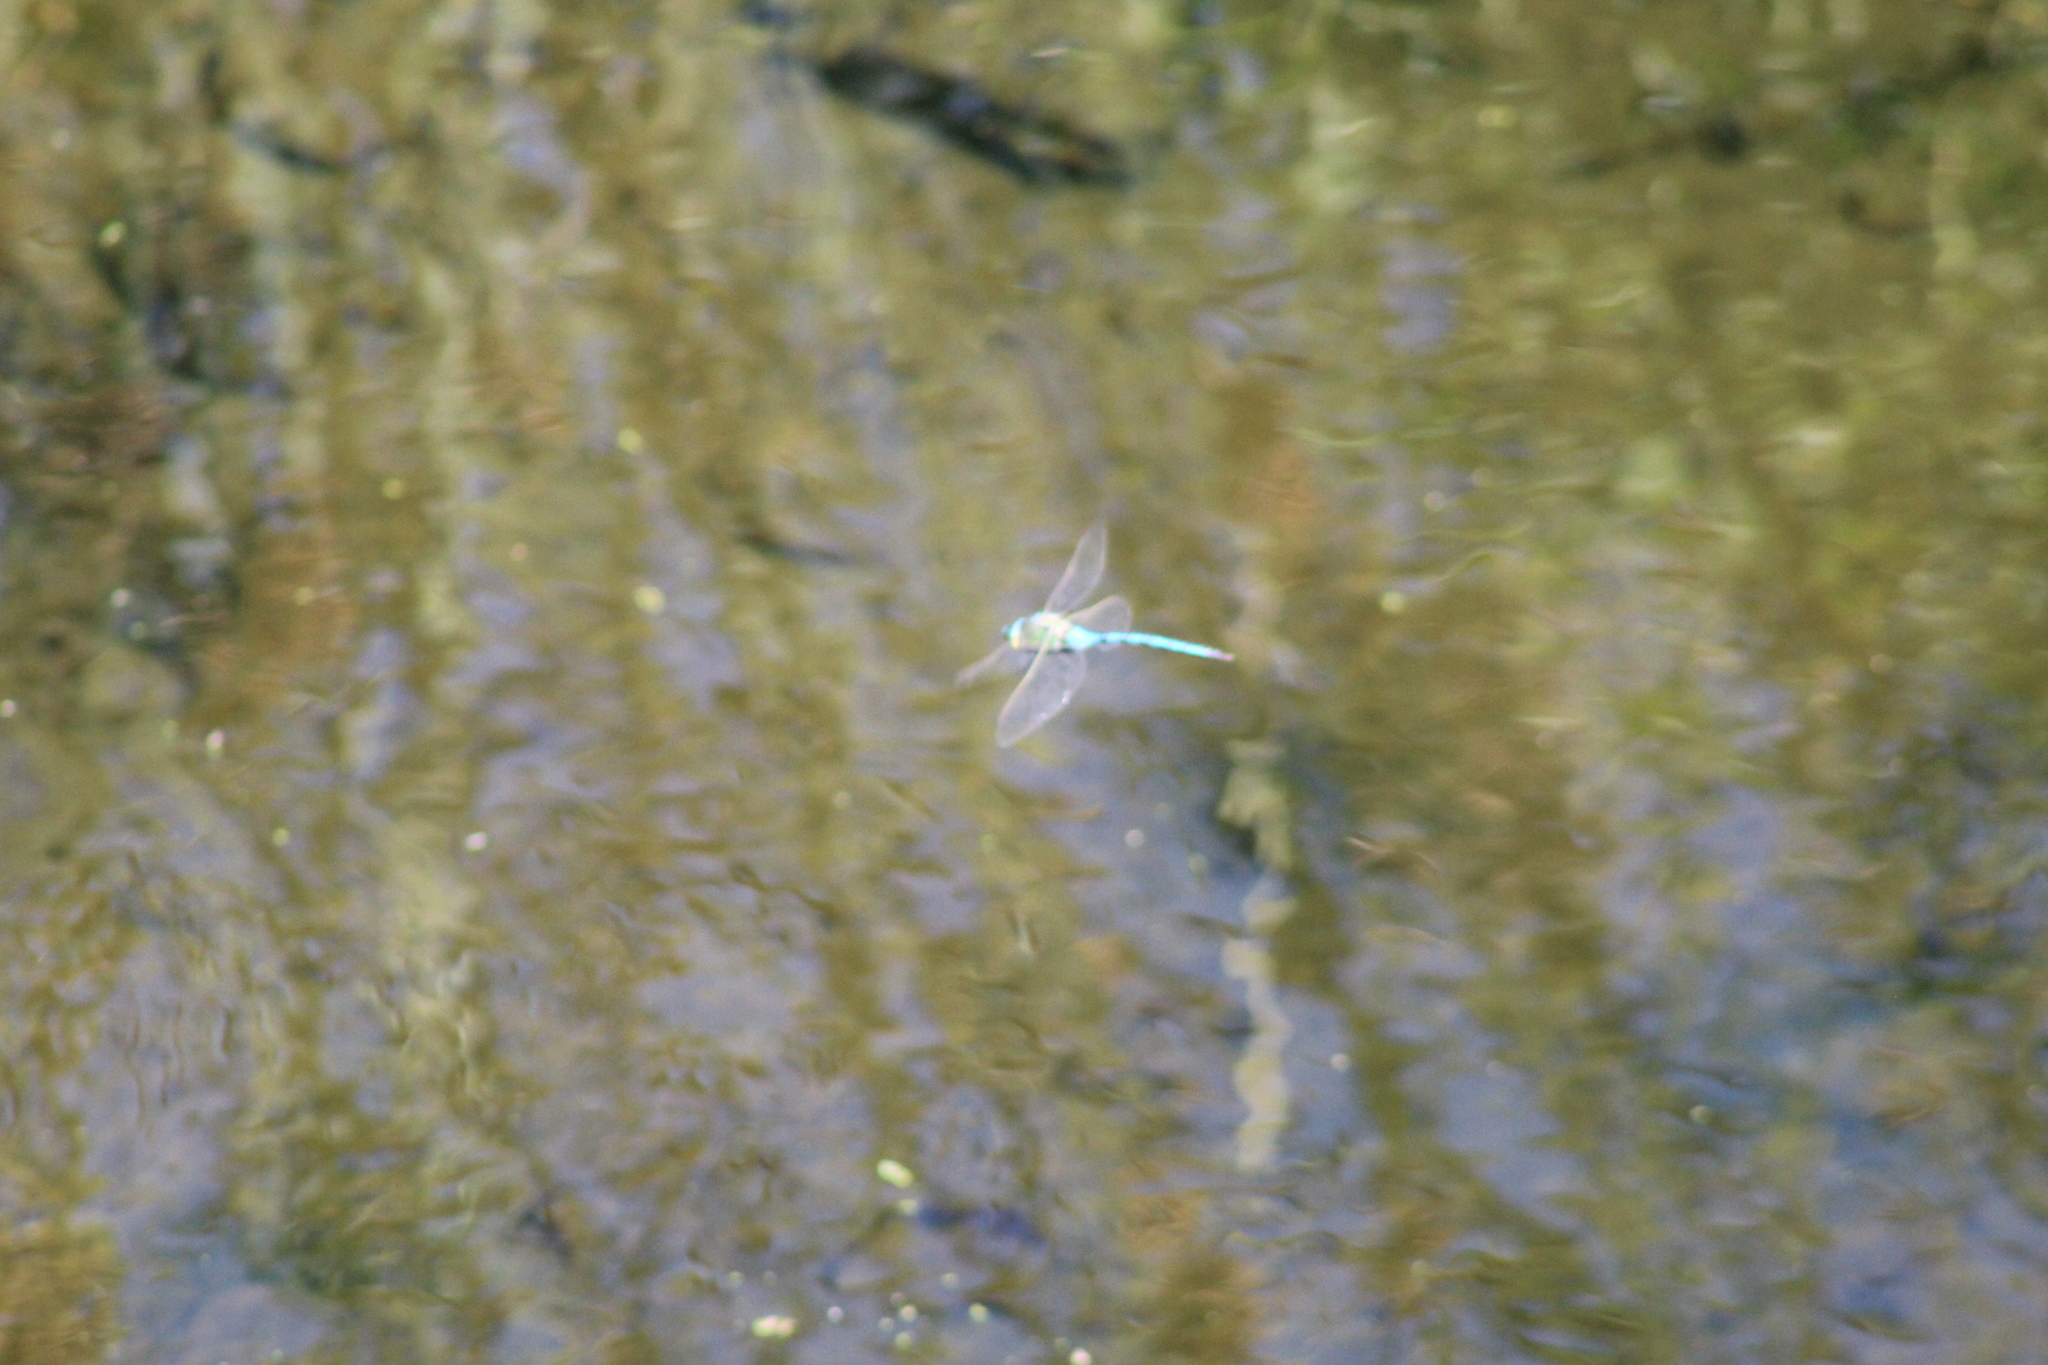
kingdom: Animalia
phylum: Arthropoda
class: Insecta
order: Odonata
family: Aeshnidae
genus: Anax
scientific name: Anax imperator
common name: Emperor dragonfly
